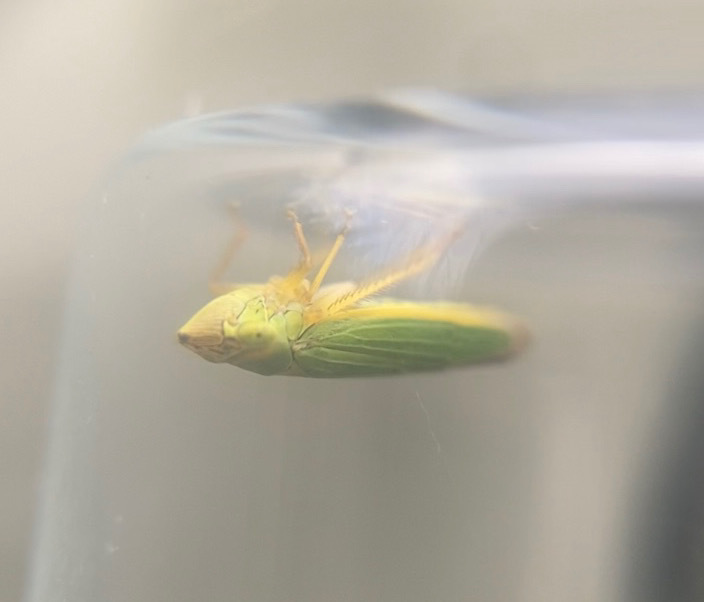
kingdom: Animalia
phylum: Arthropoda
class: Insecta
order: Hemiptera
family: Cicadellidae
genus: Draeculacephala
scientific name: Draeculacephala angulifera
